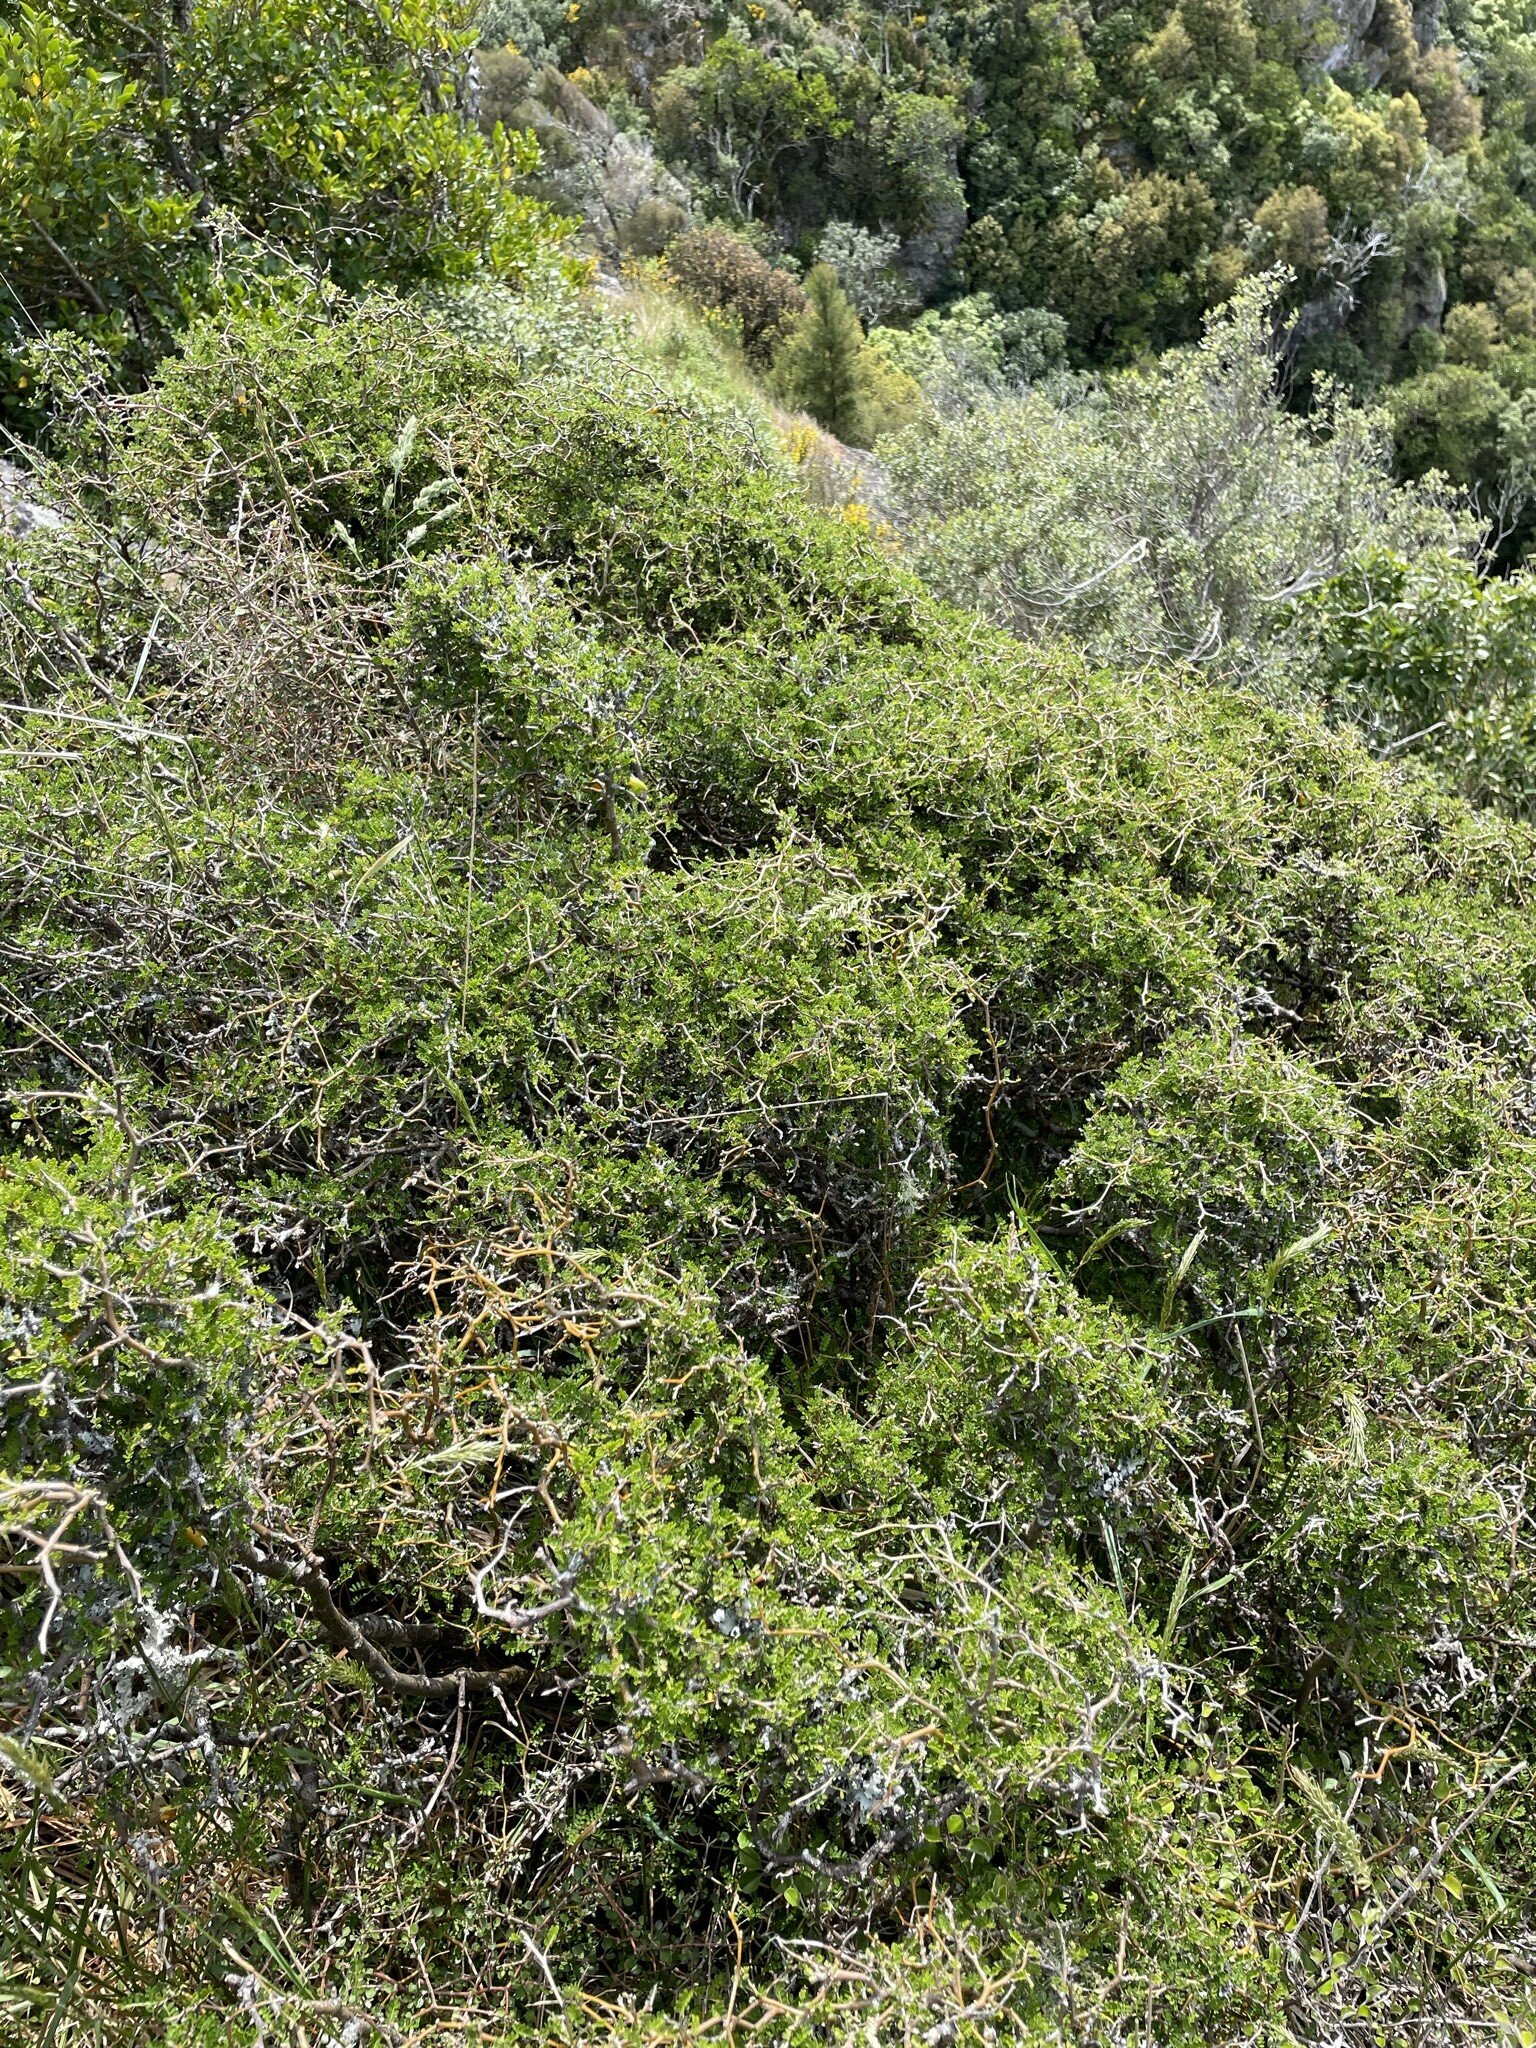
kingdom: Plantae
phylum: Tracheophyta
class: Magnoliopsida
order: Fabales
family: Fabaceae
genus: Sophora
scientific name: Sophora prostrata
